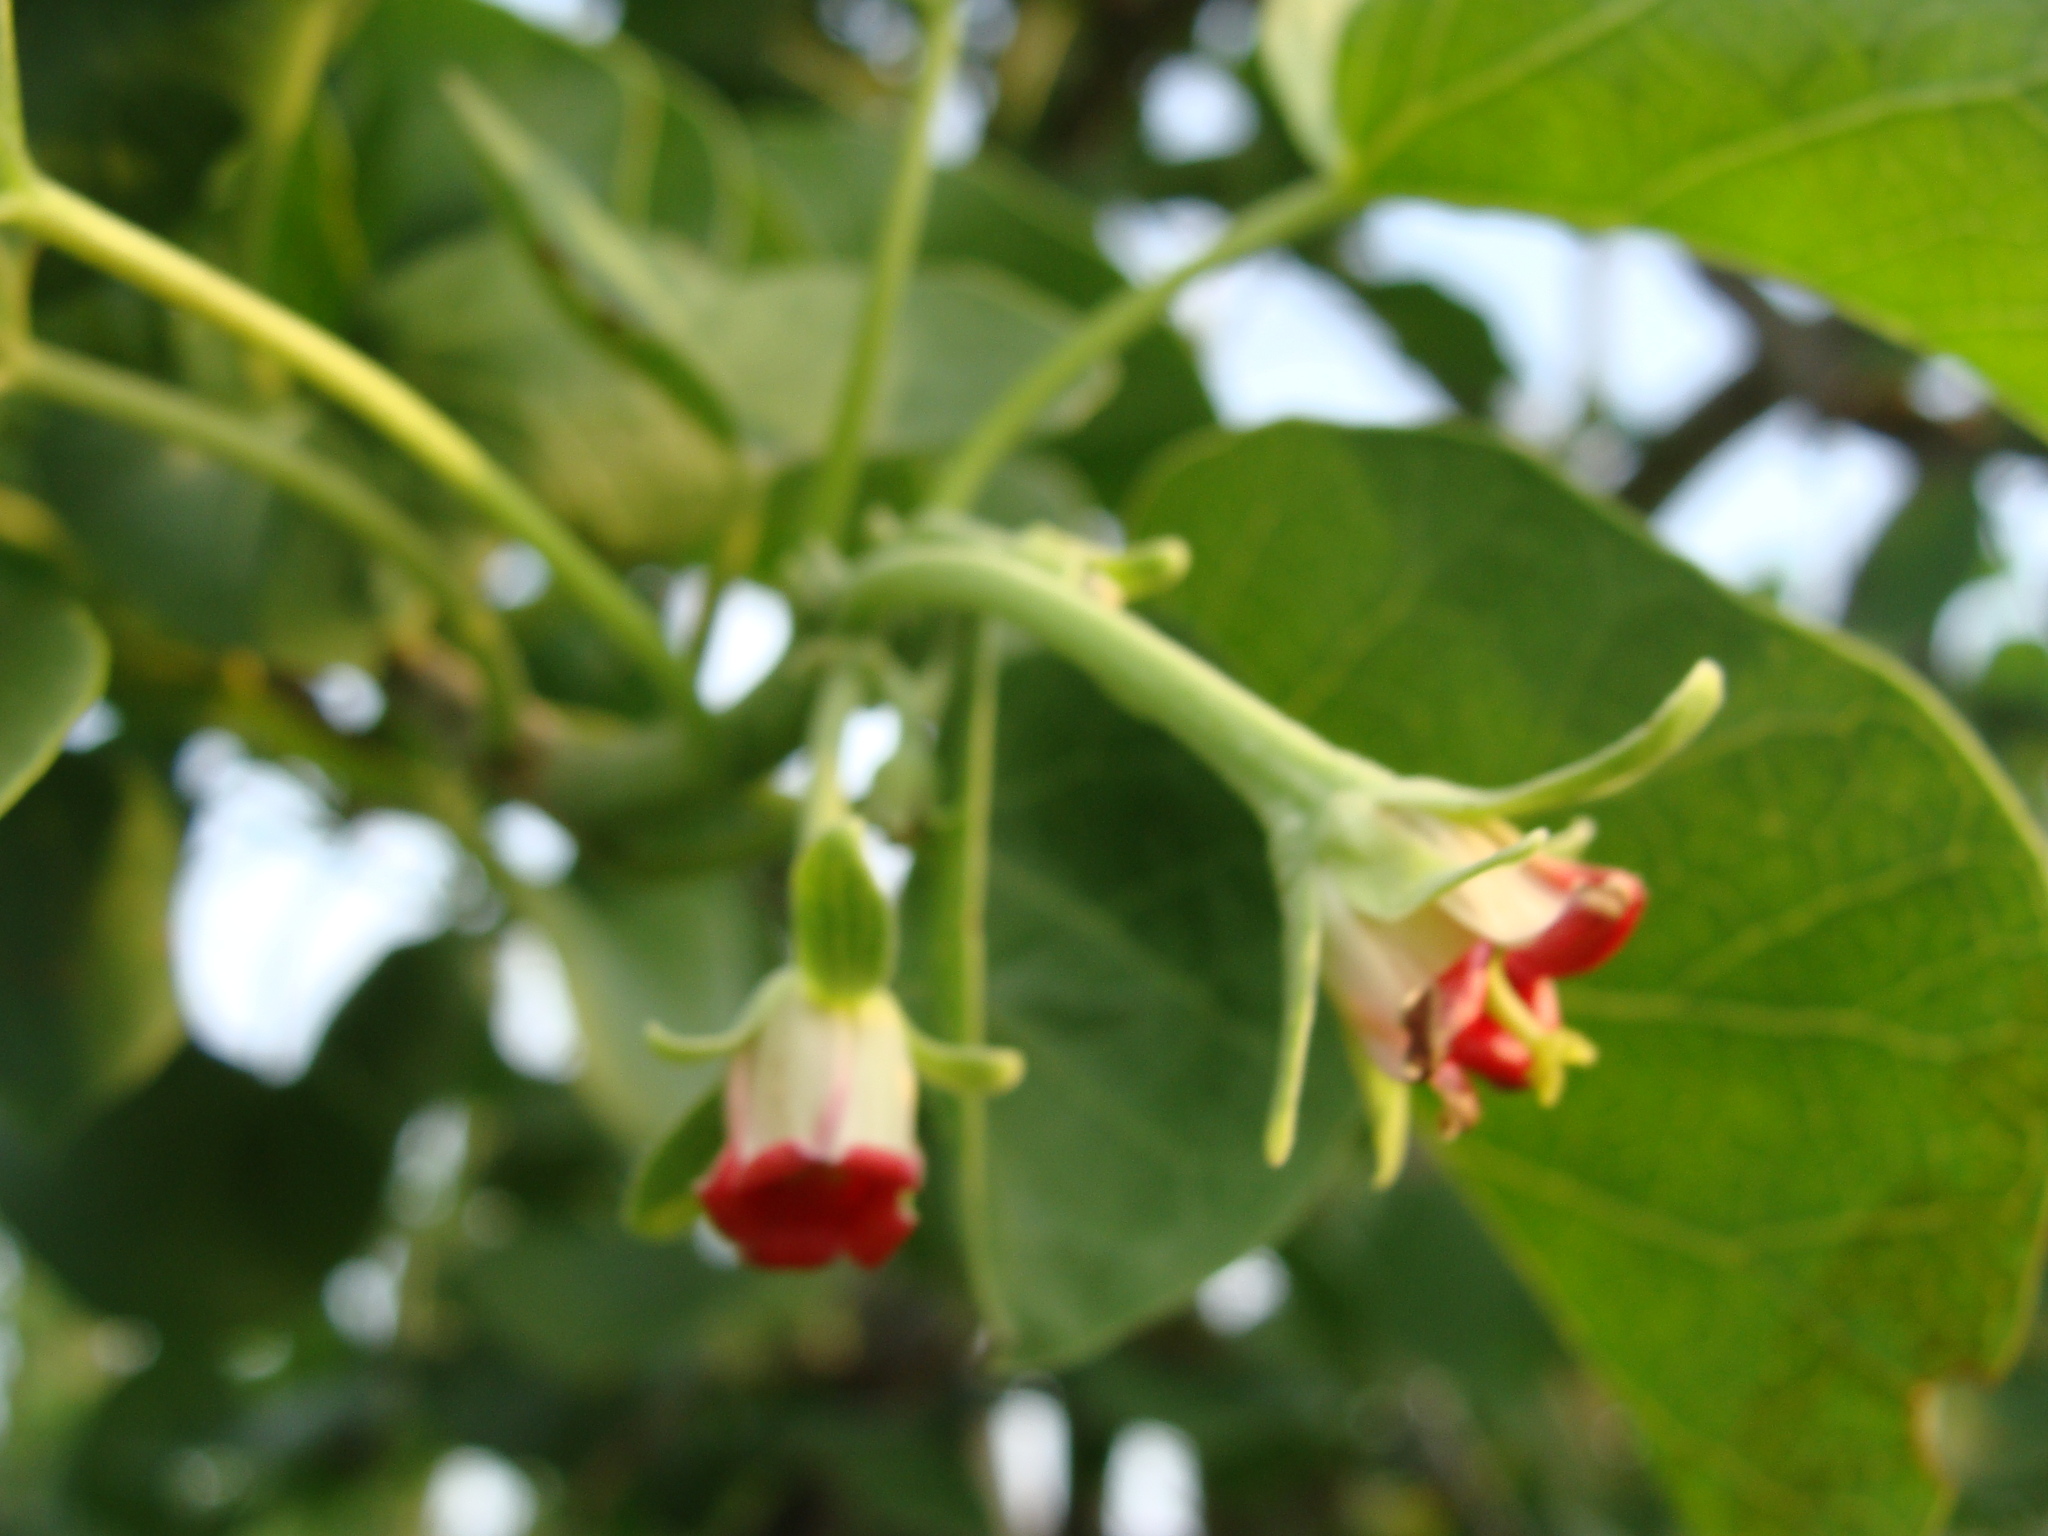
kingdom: Plantae
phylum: Tracheophyta
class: Magnoliopsida
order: Malpighiales
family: Euphorbiaceae
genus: Jatropha
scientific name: Jatropha cinerea
